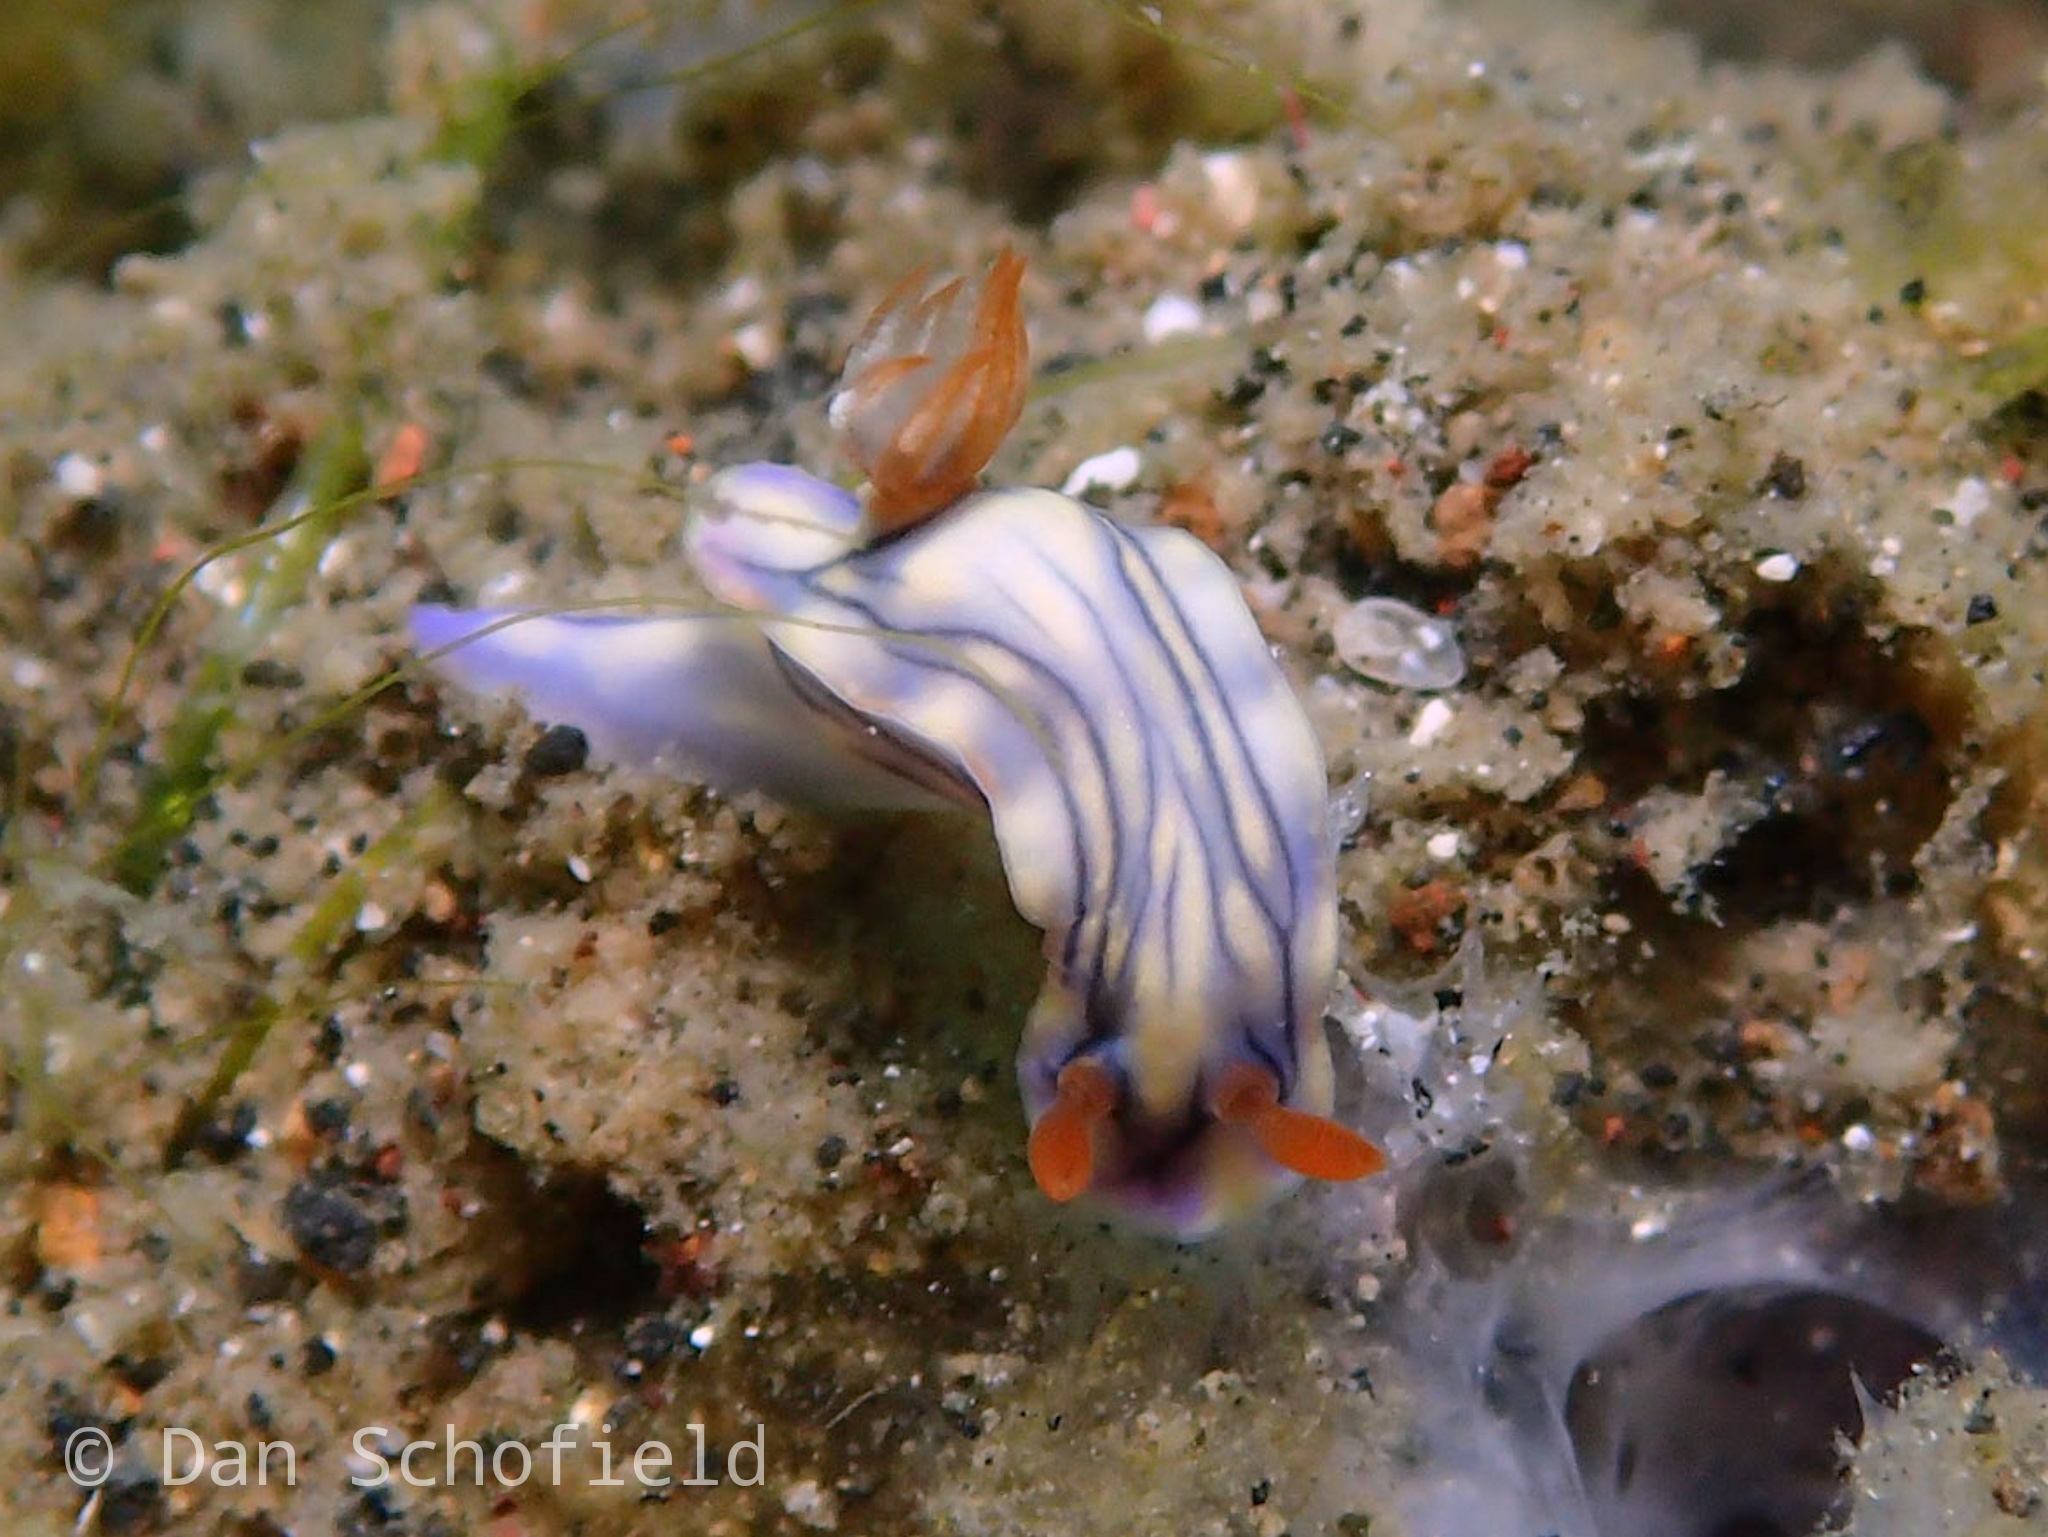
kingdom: Animalia
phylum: Mollusca
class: Gastropoda
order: Nudibranchia
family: Chromodorididae
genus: Hypselodoris
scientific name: Hypselodoris zephyra
